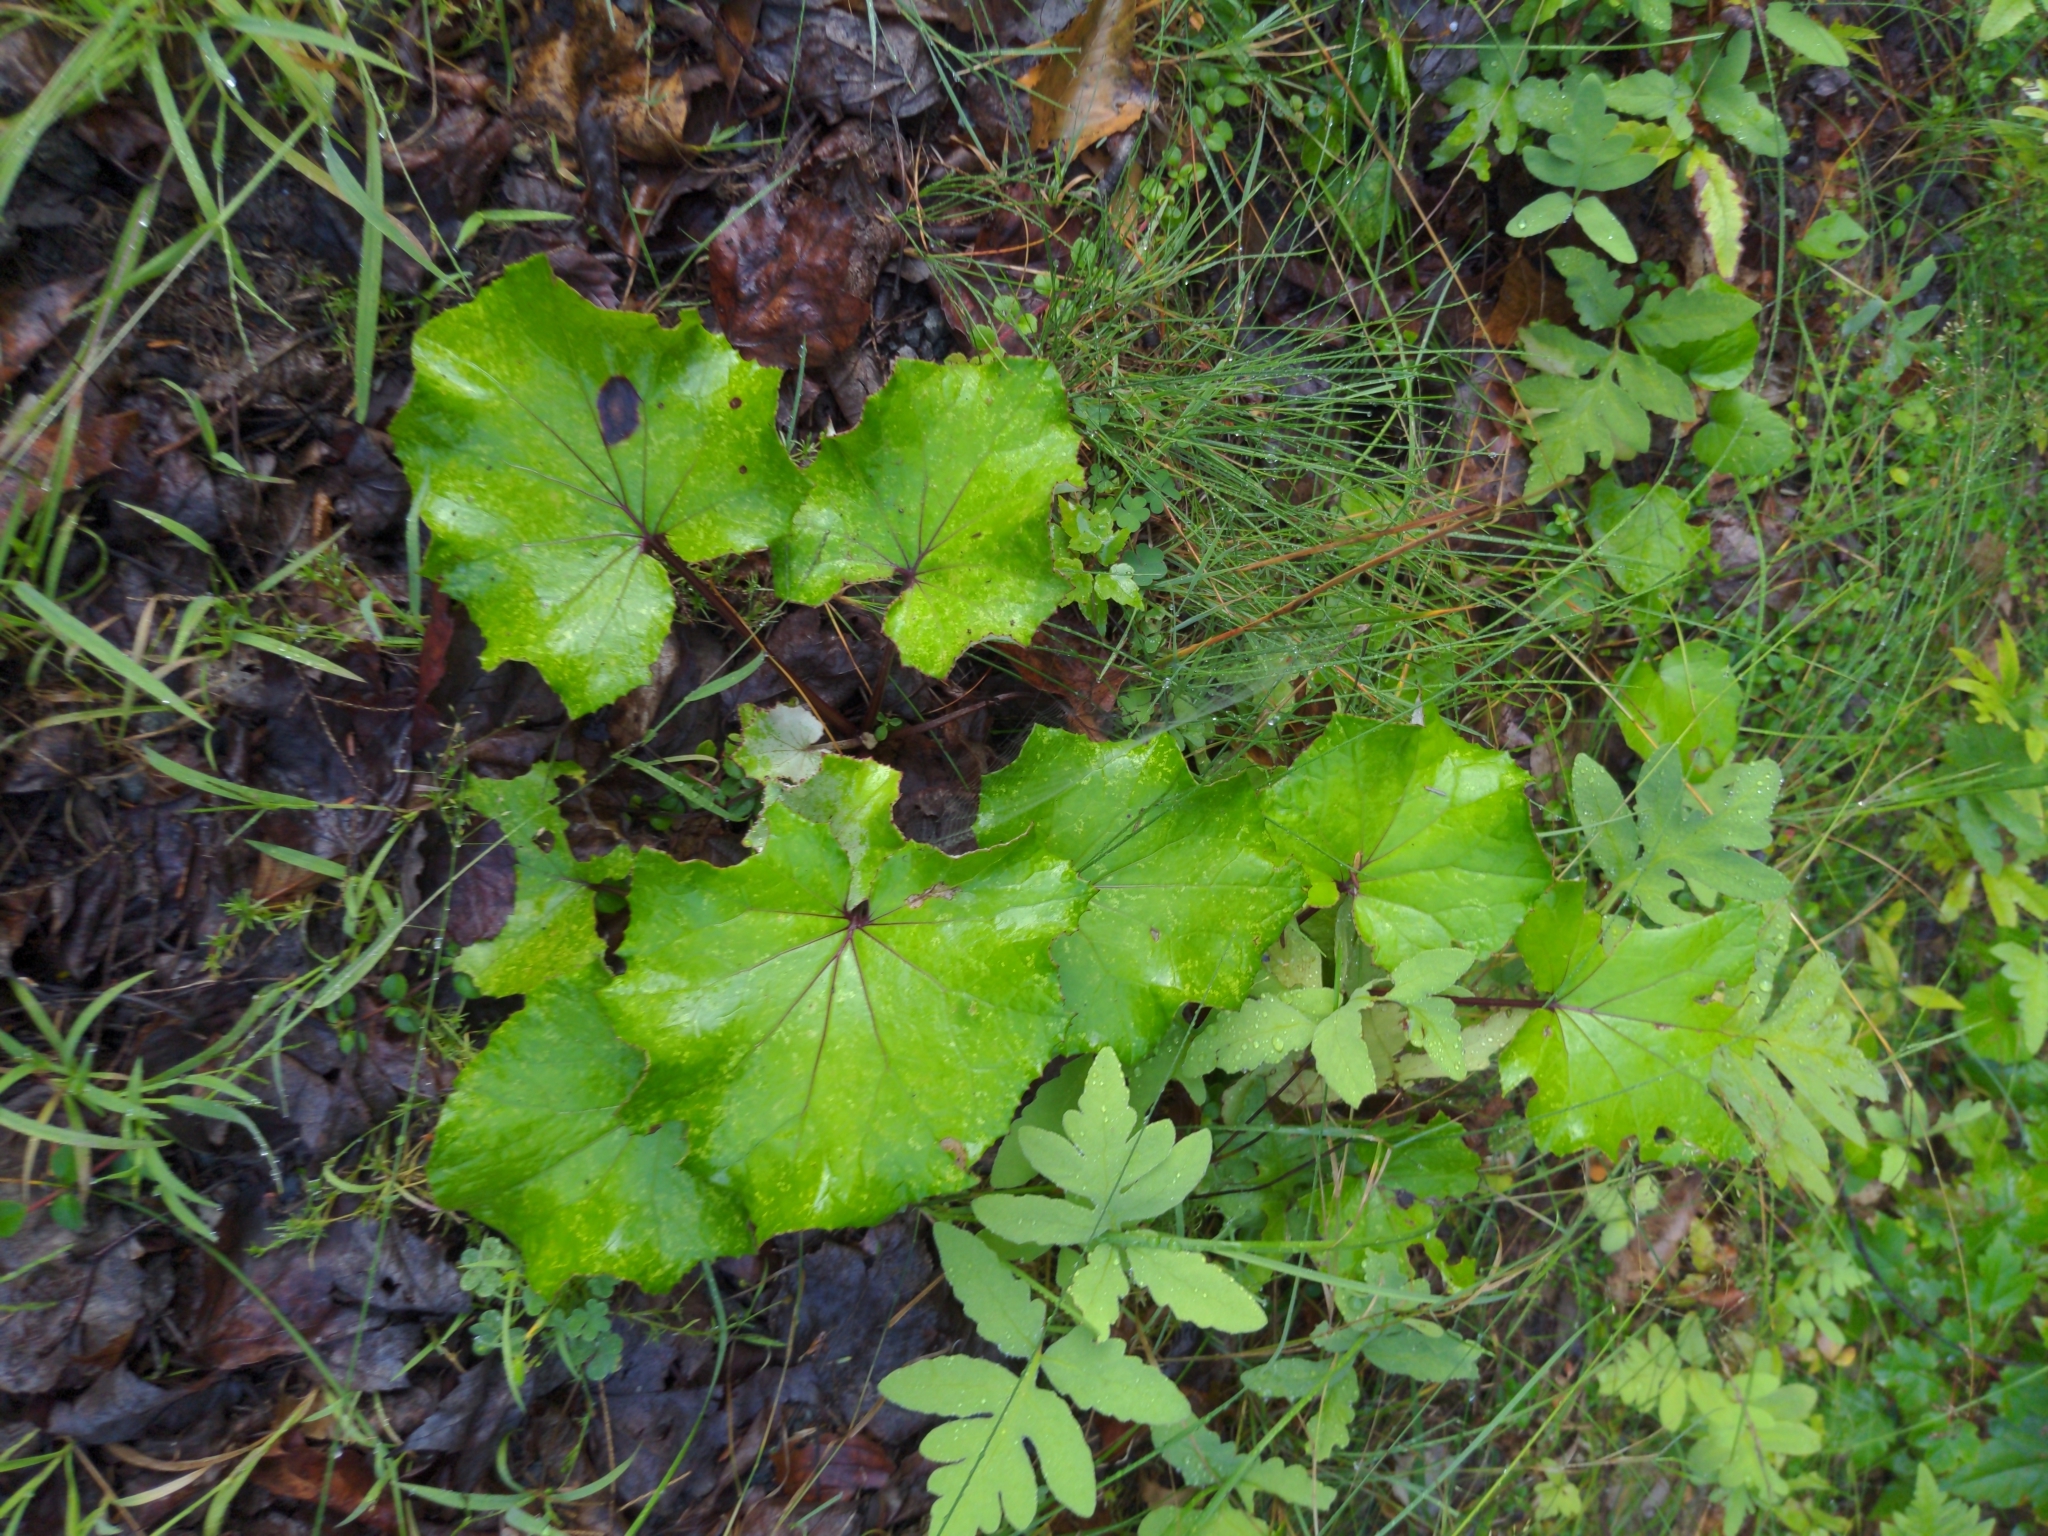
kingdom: Plantae
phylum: Tracheophyta
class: Magnoliopsida
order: Asterales
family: Asteraceae
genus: Tussilago
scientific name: Tussilago farfara
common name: Coltsfoot
